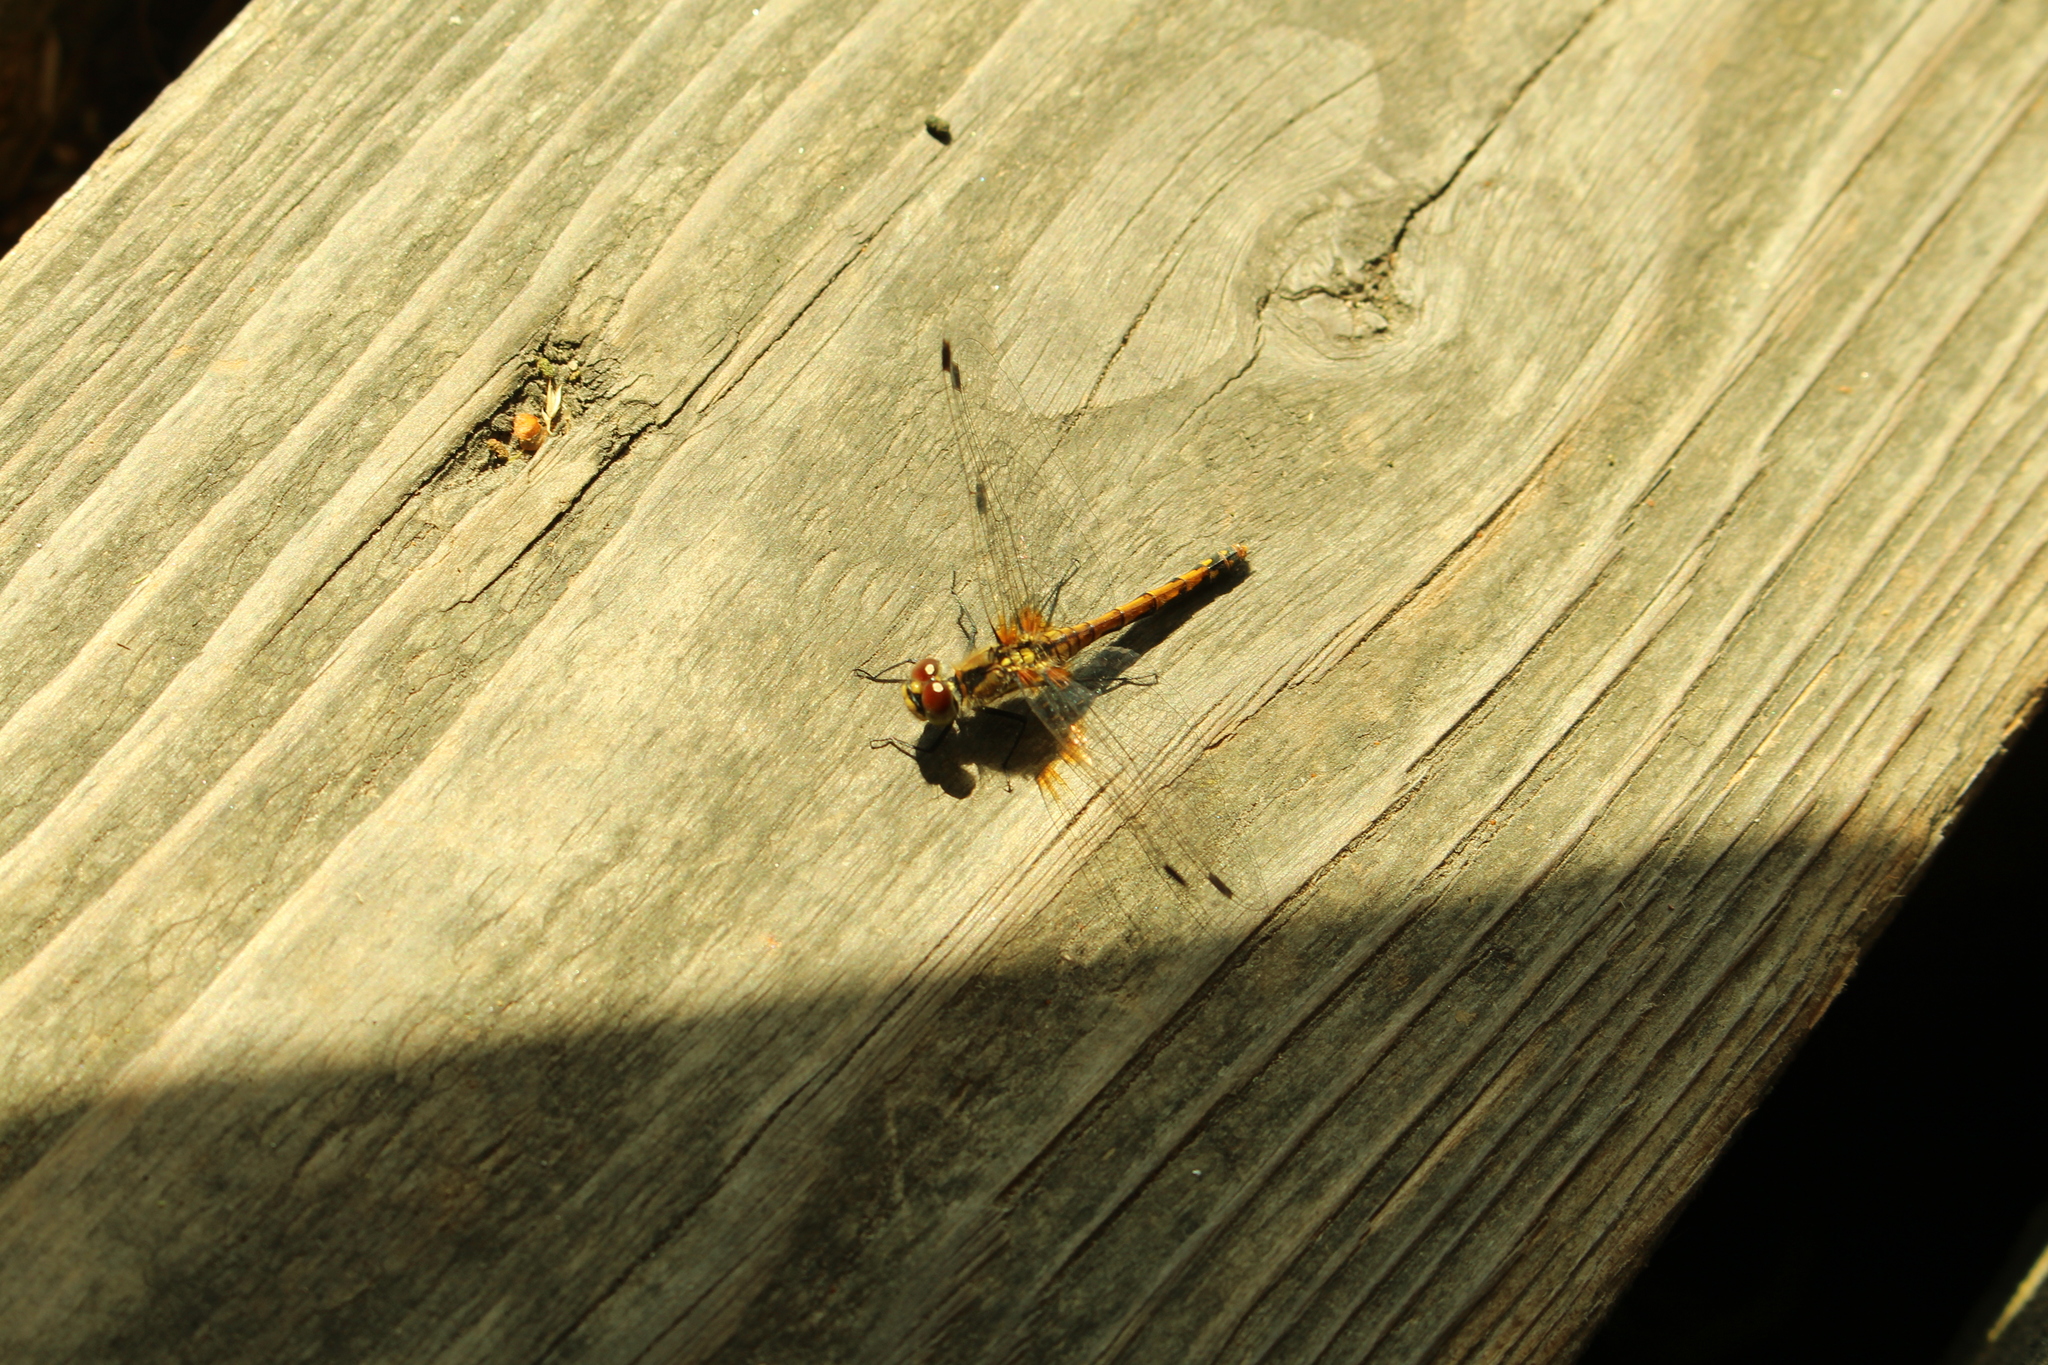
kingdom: Animalia
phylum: Arthropoda
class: Insecta
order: Odonata
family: Libellulidae
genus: Sympetrum
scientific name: Sympetrum danae
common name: Black darter
